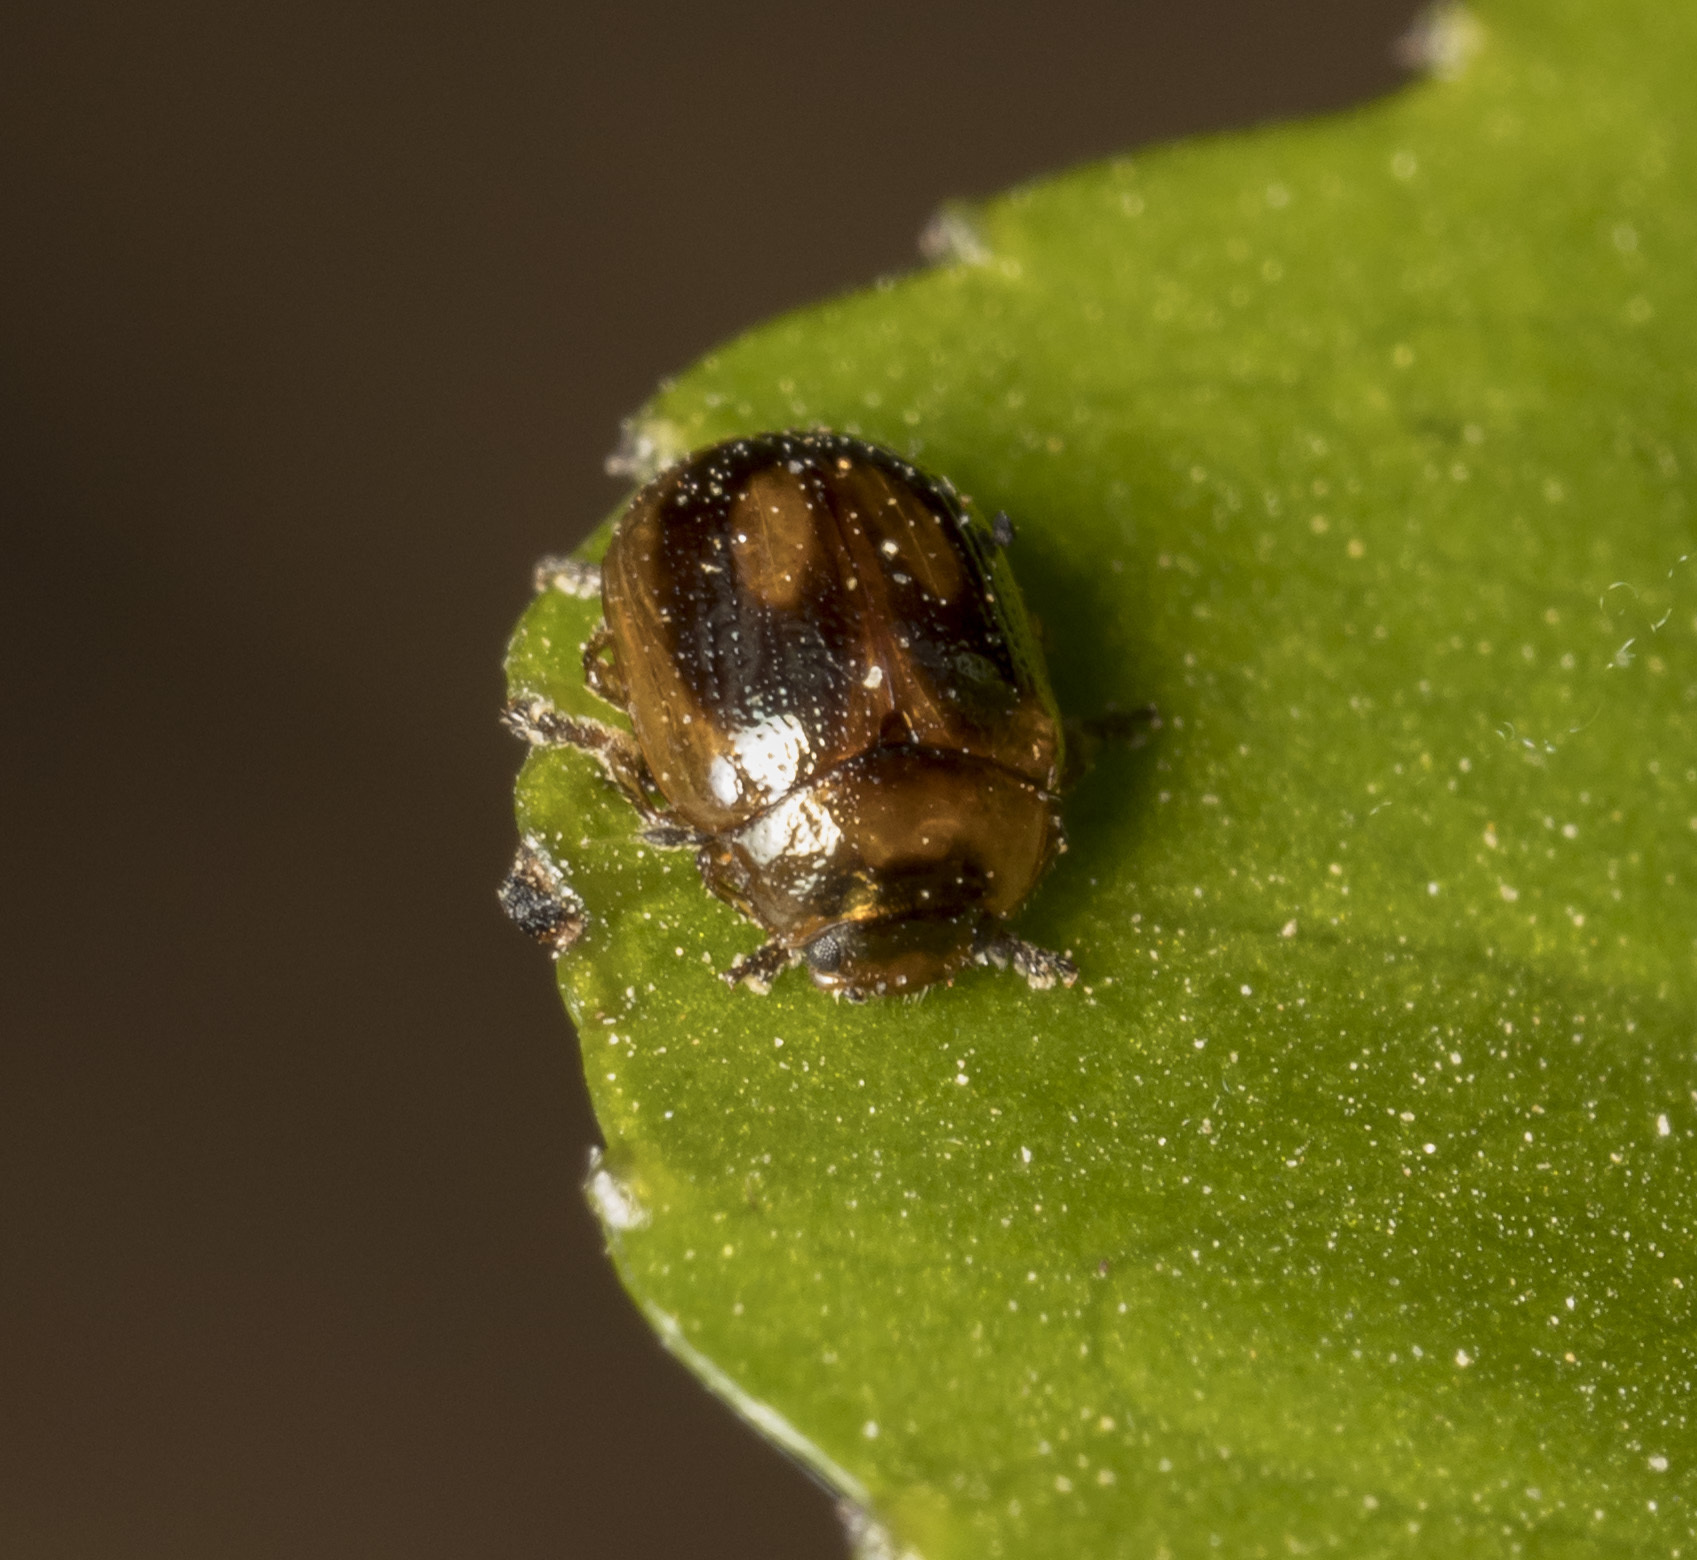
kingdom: Animalia
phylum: Arthropoda
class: Insecta
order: Coleoptera
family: Chrysomelidae
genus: Araucanomela
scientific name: Araucanomela
